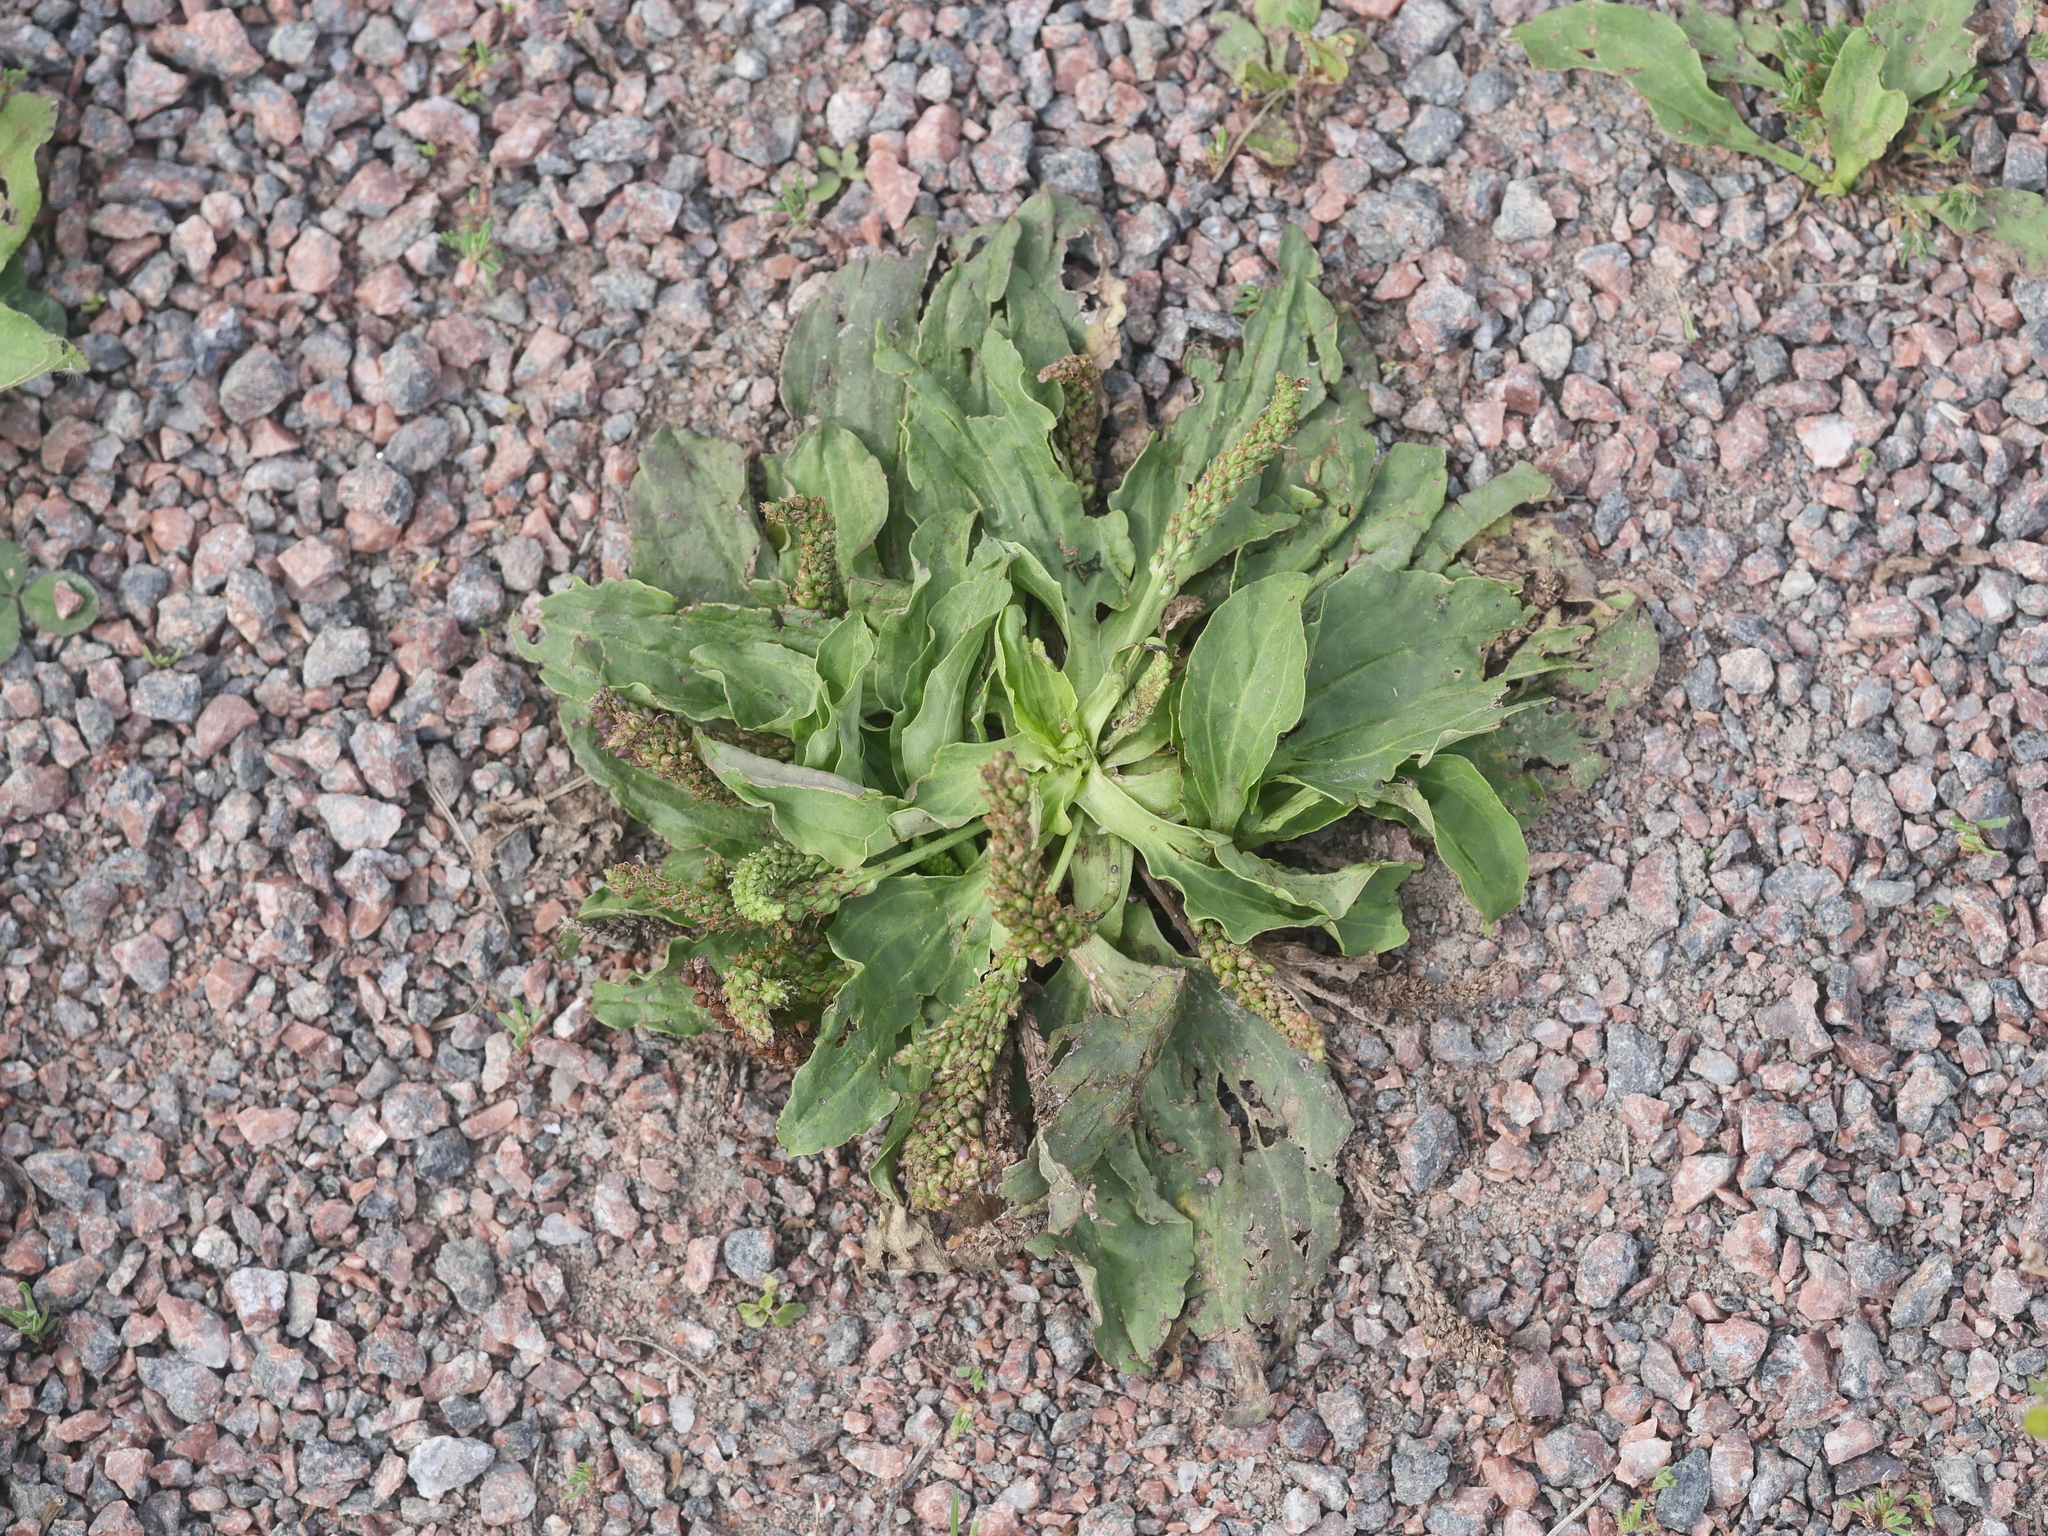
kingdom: Plantae
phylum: Tracheophyta
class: Magnoliopsida
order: Lamiales
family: Plantaginaceae
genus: Plantago
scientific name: Plantago major
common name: Common plantain
